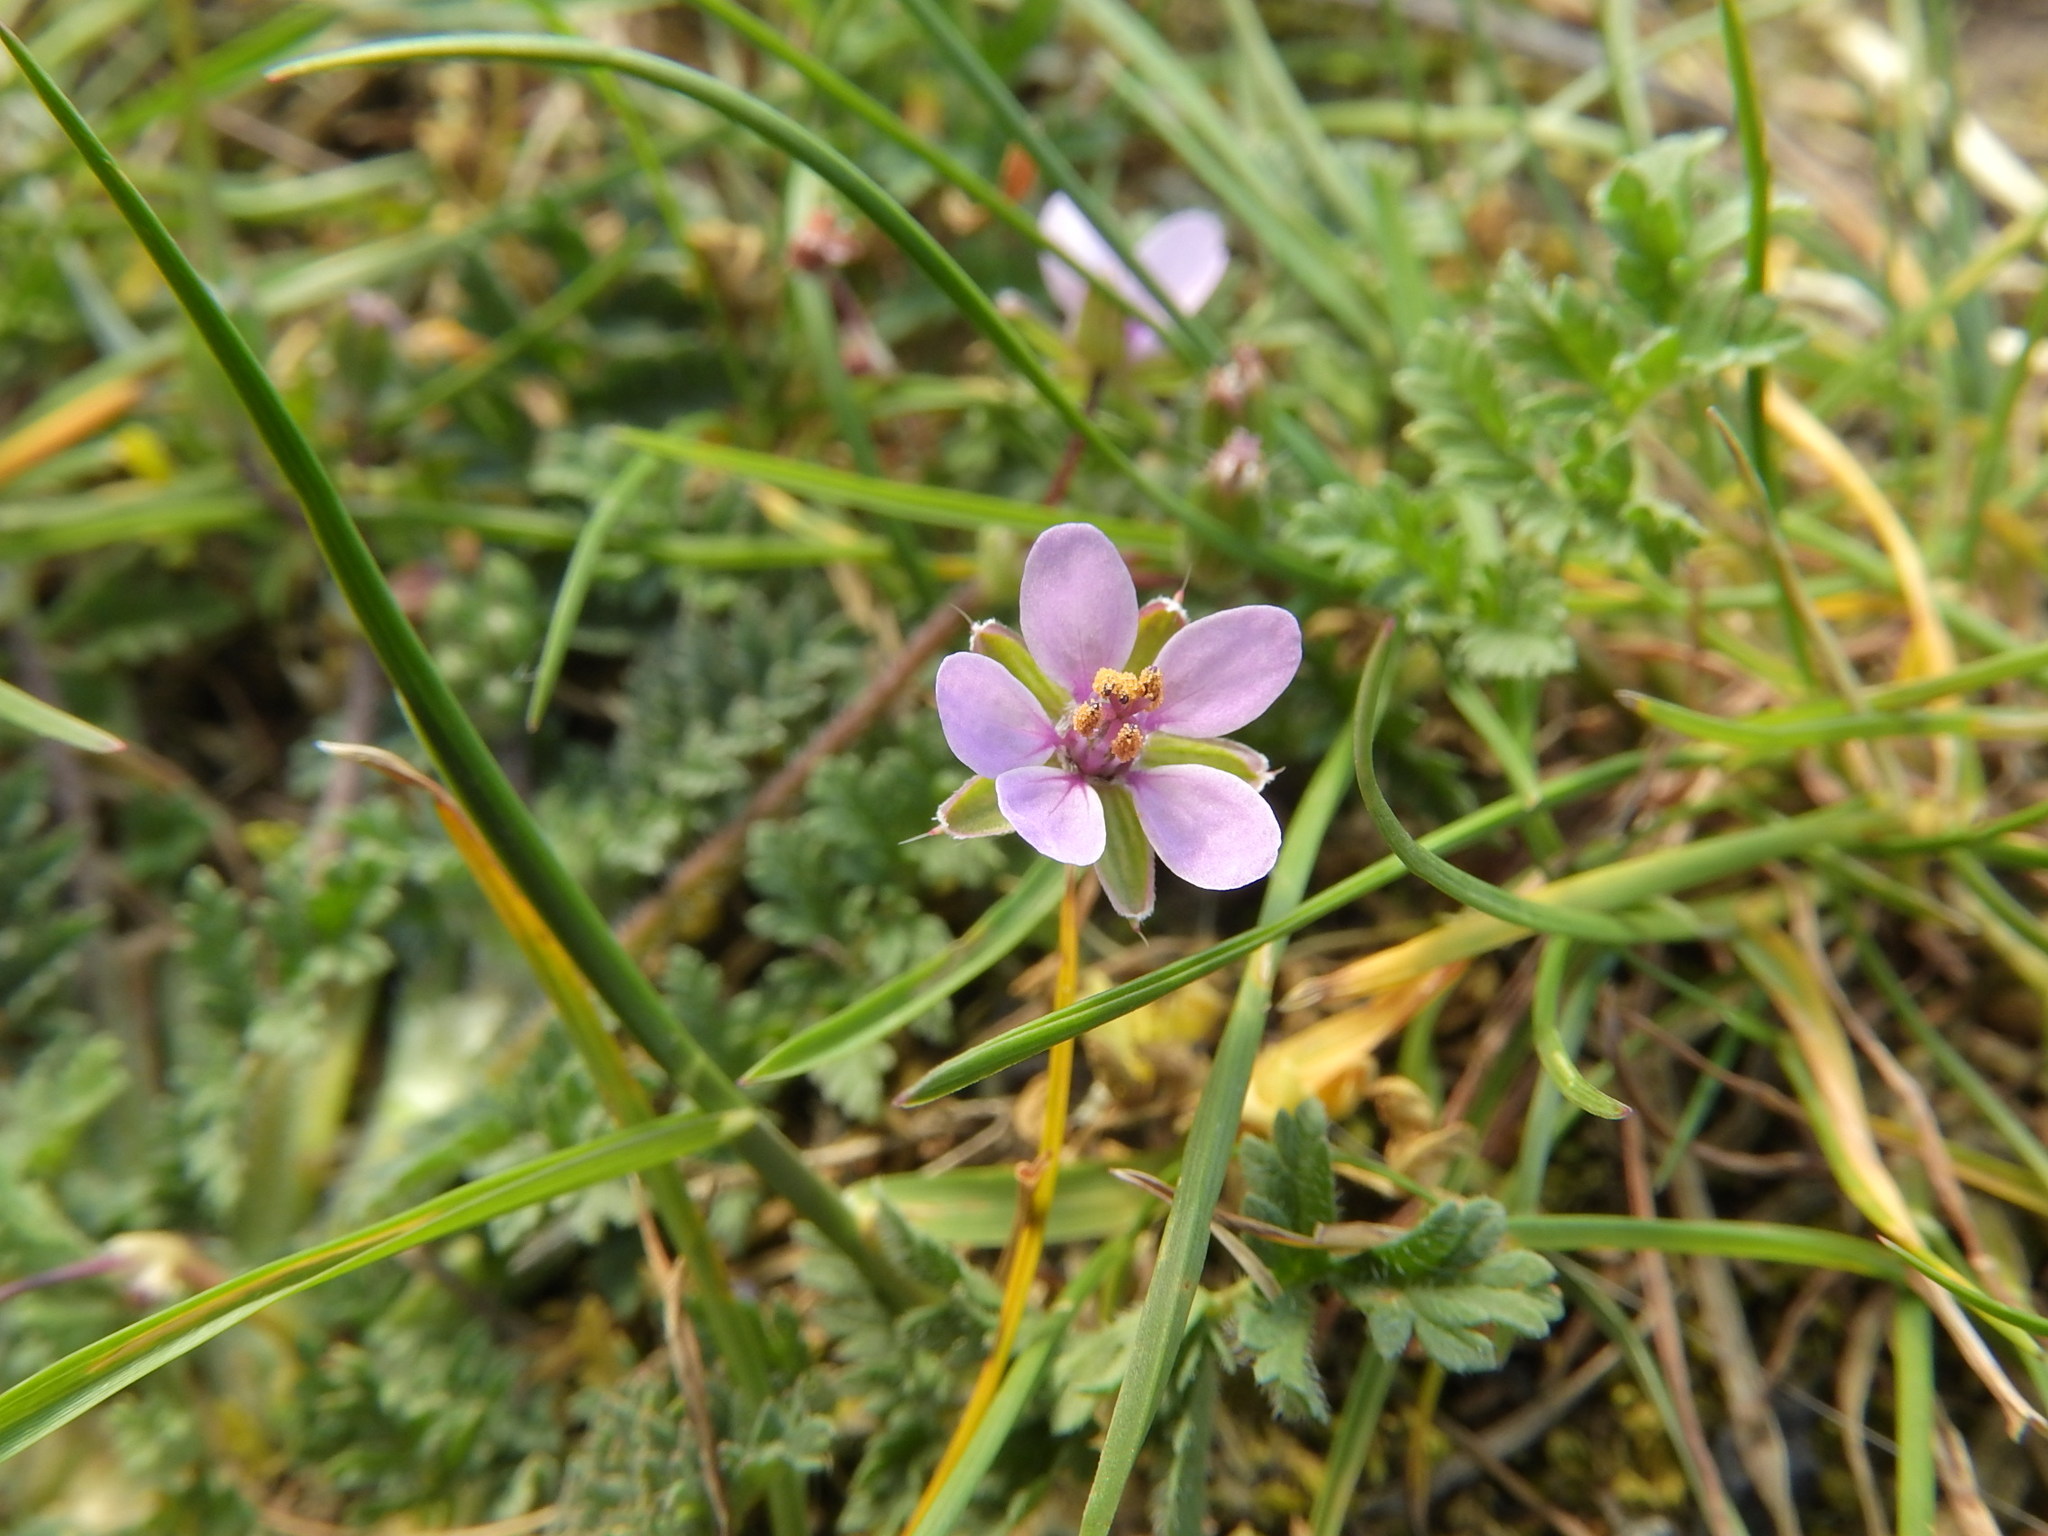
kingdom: Plantae
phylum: Tracheophyta
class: Magnoliopsida
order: Geraniales
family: Geraniaceae
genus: Erodium
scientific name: Erodium cicutarium
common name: Common stork's-bill
